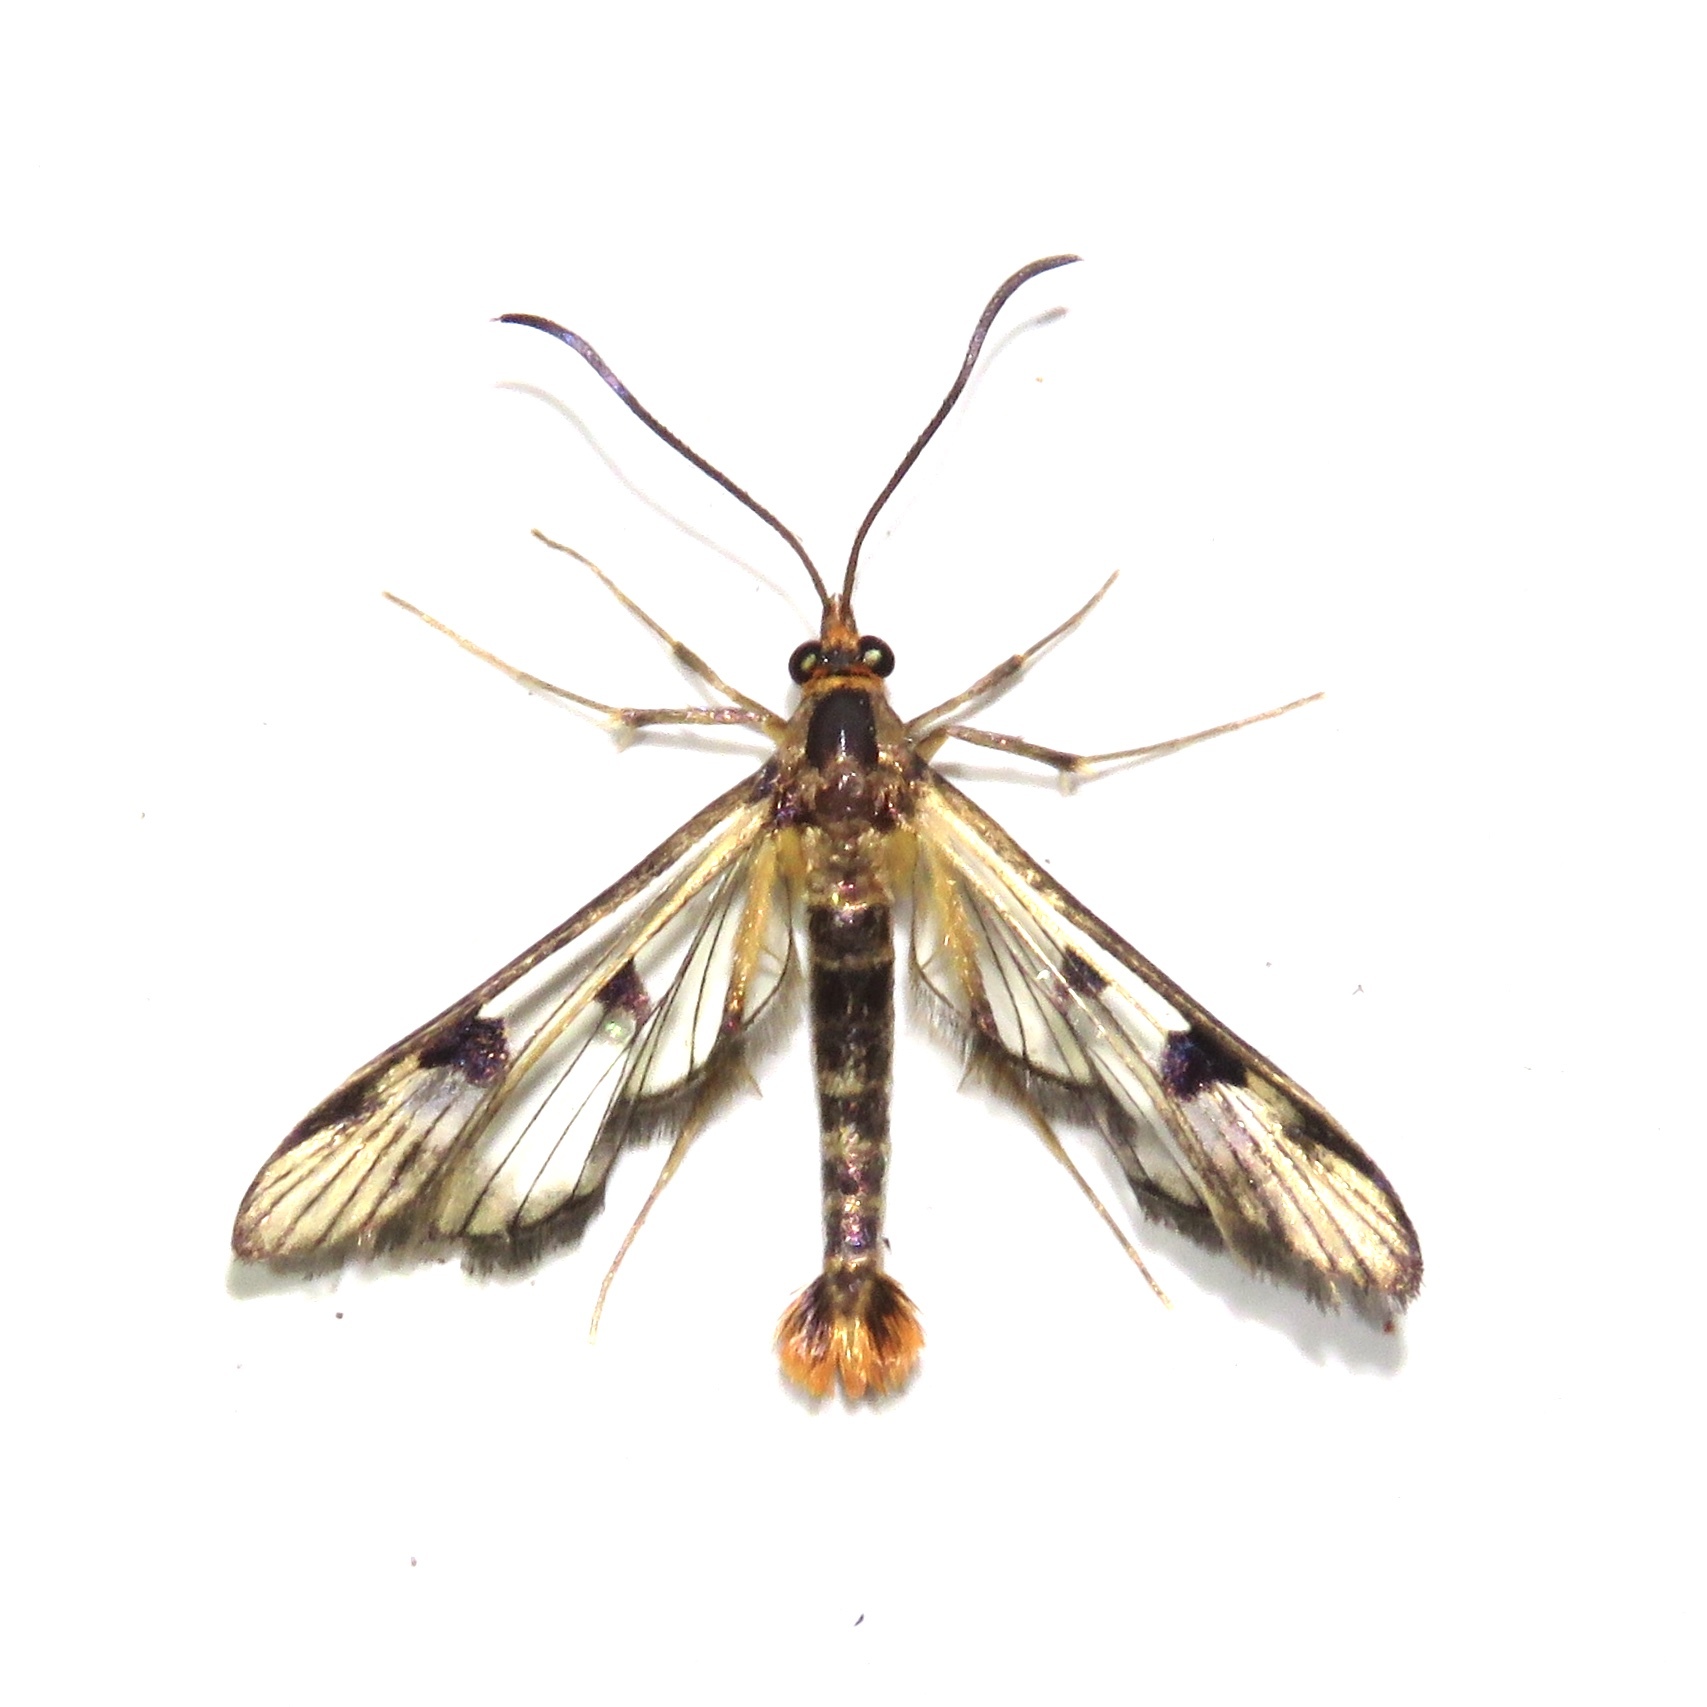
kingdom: Animalia
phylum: Arthropoda
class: Insecta
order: Lepidoptera
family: Sesiidae
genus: Synanthedon
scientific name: Synanthedon acerni
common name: Maple callus borer moth
